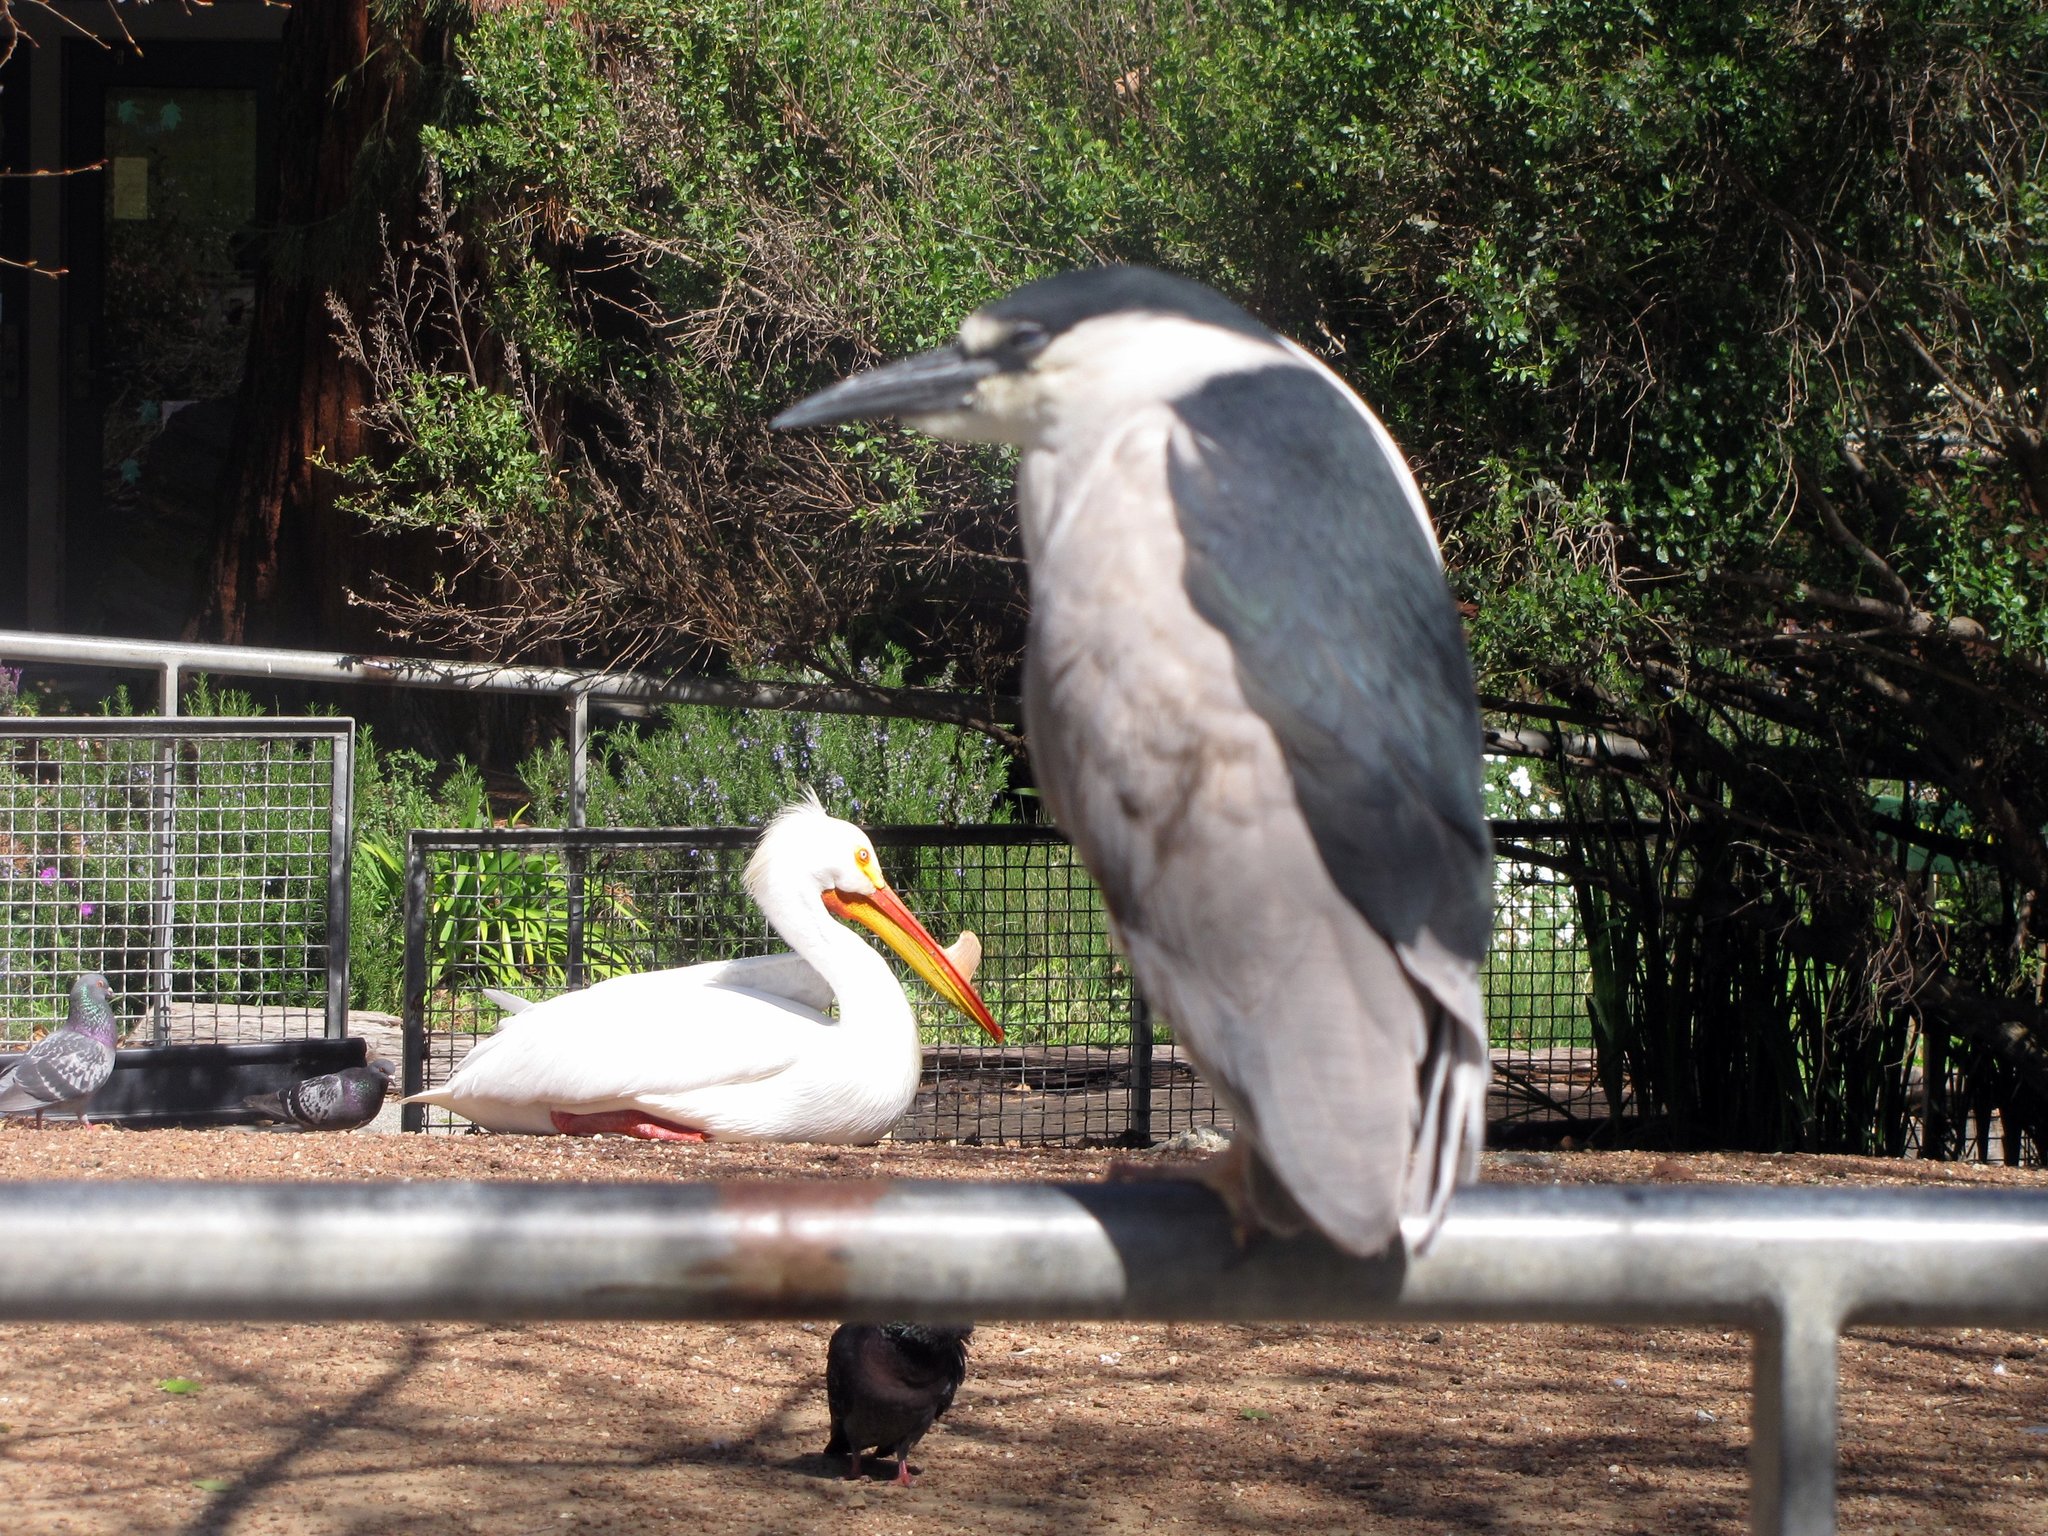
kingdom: Animalia
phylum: Chordata
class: Aves
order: Pelecaniformes
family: Pelecanidae
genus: Pelecanus
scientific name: Pelecanus erythrorhynchos
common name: American white pelican
